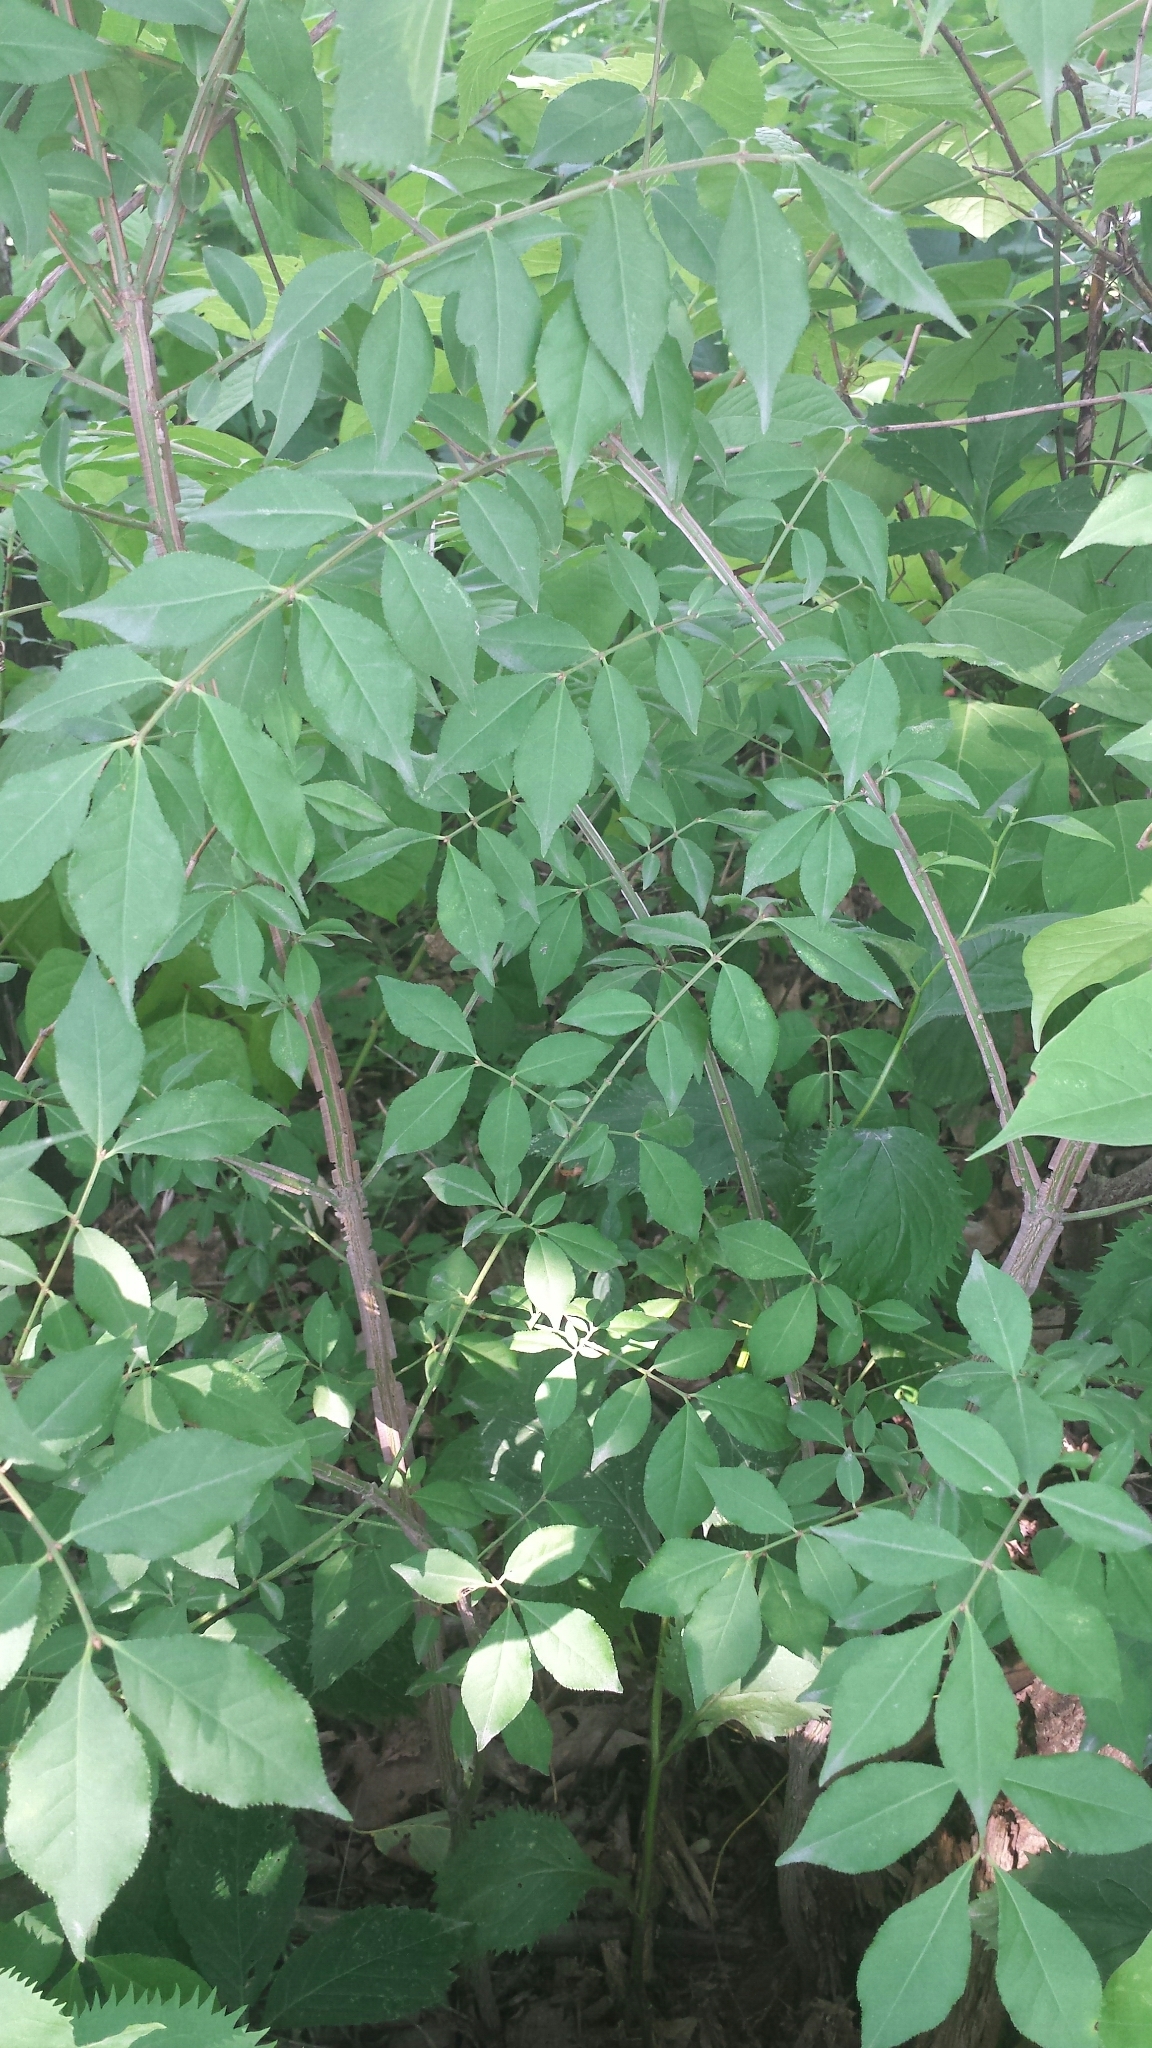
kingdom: Plantae
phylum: Tracheophyta
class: Magnoliopsida
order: Celastrales
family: Celastraceae
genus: Euonymus
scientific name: Euonymus alatus
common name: Winged euonymus
